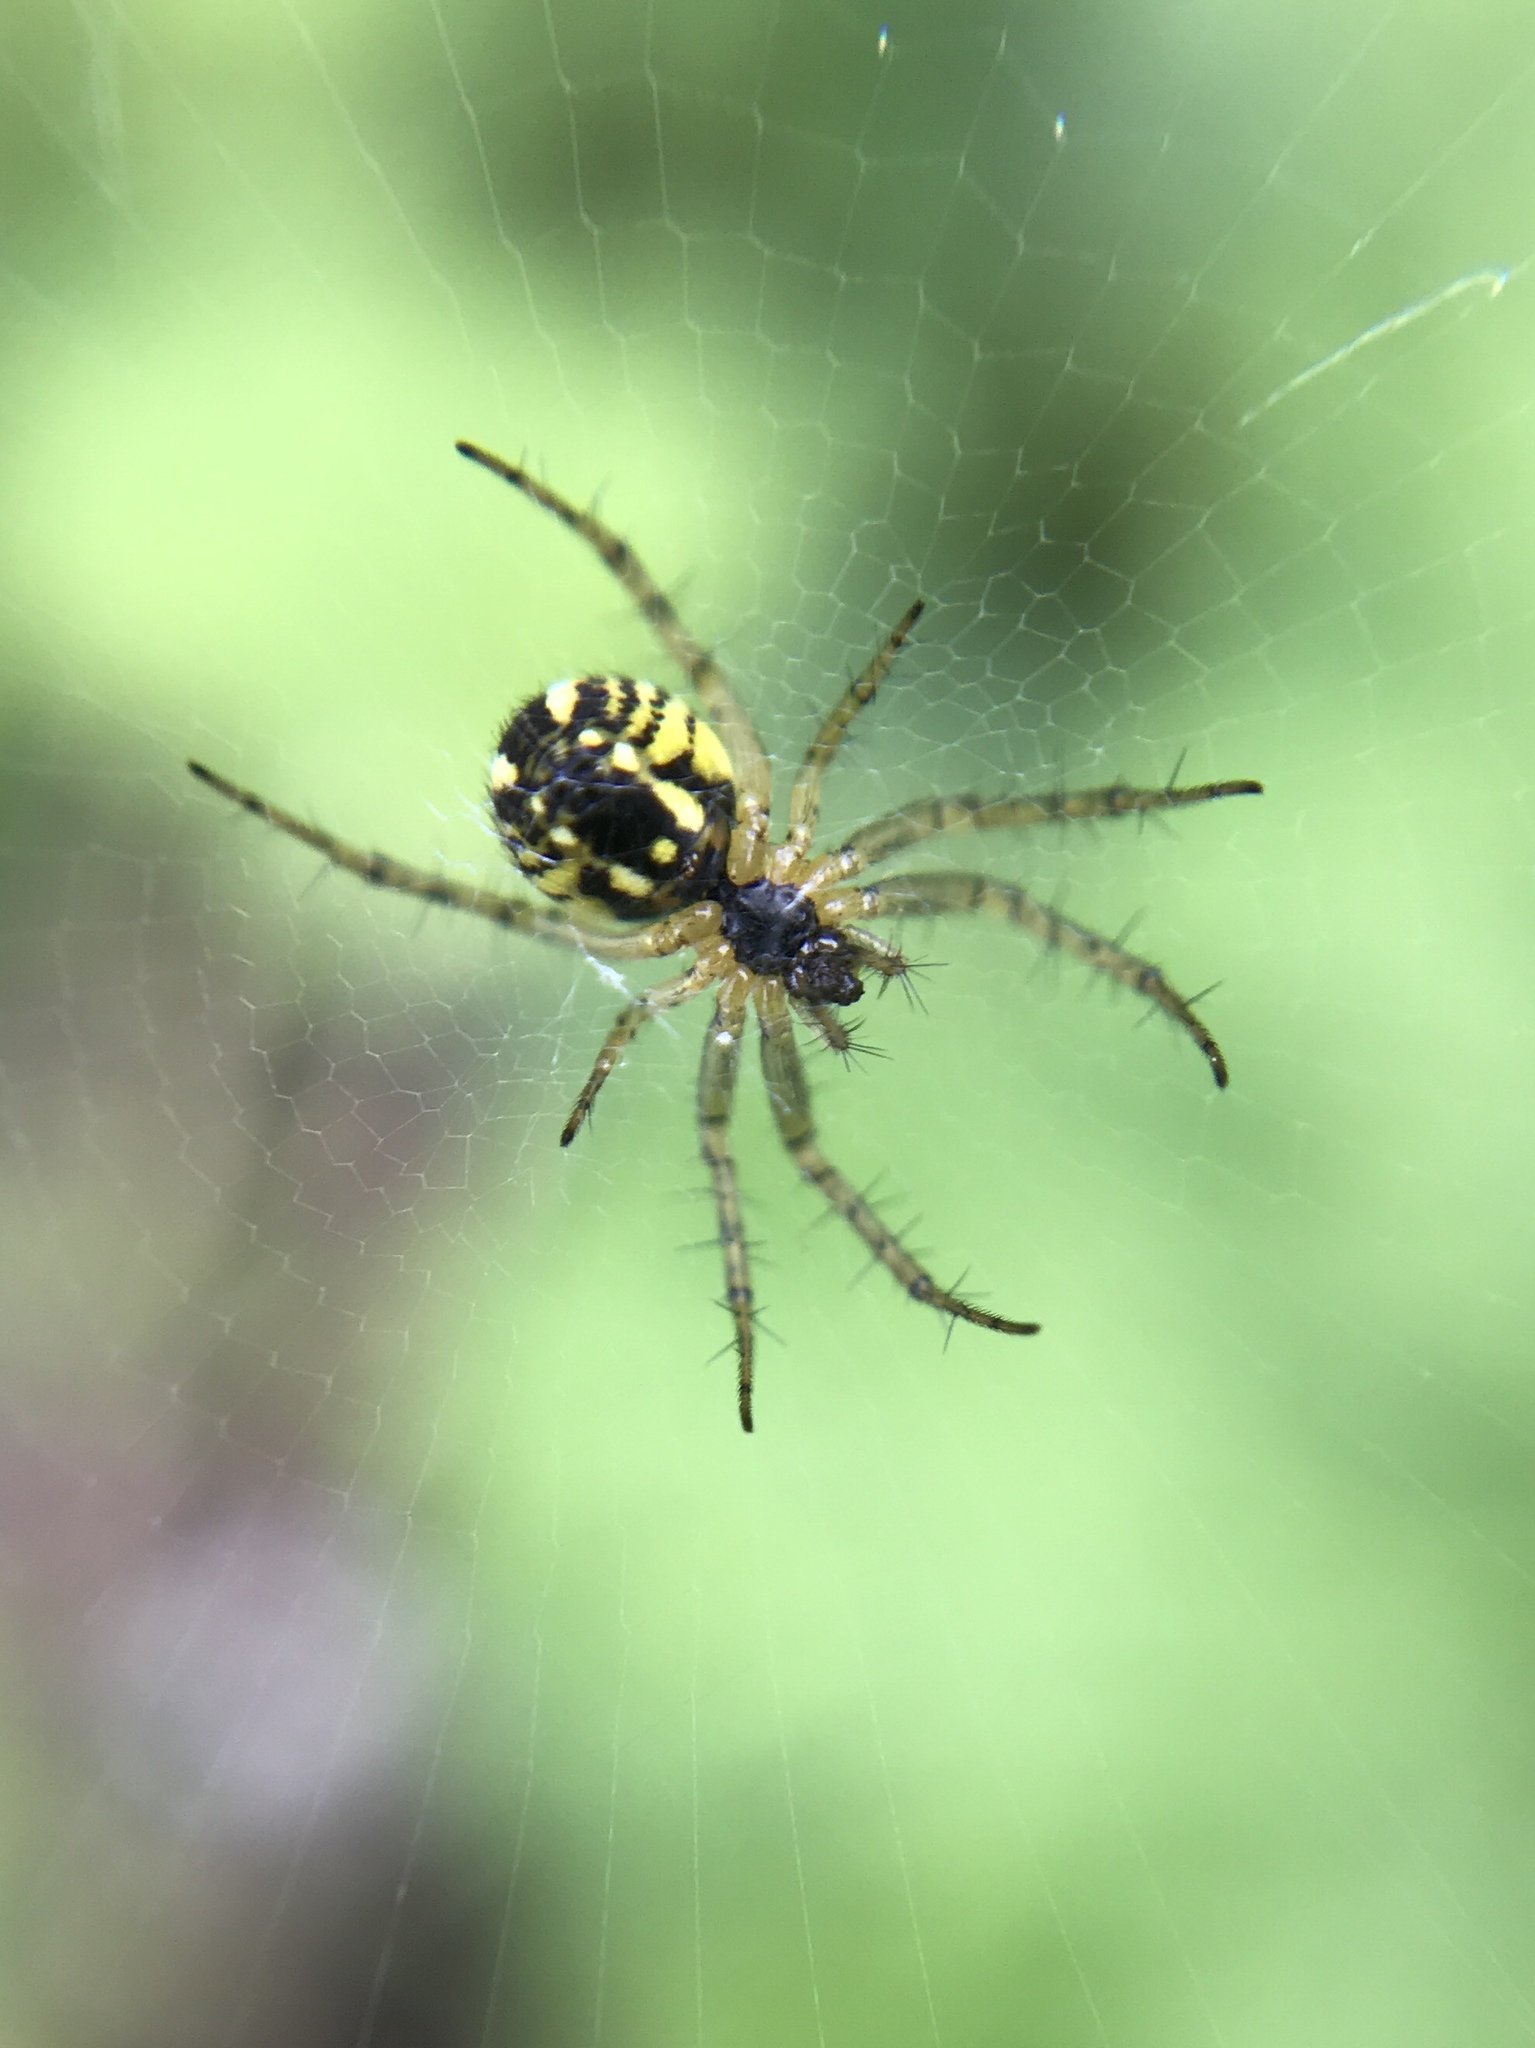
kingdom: Animalia
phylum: Arthropoda
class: Arachnida
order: Araneae
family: Araneidae
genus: Mangora
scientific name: Mangora acalypha
